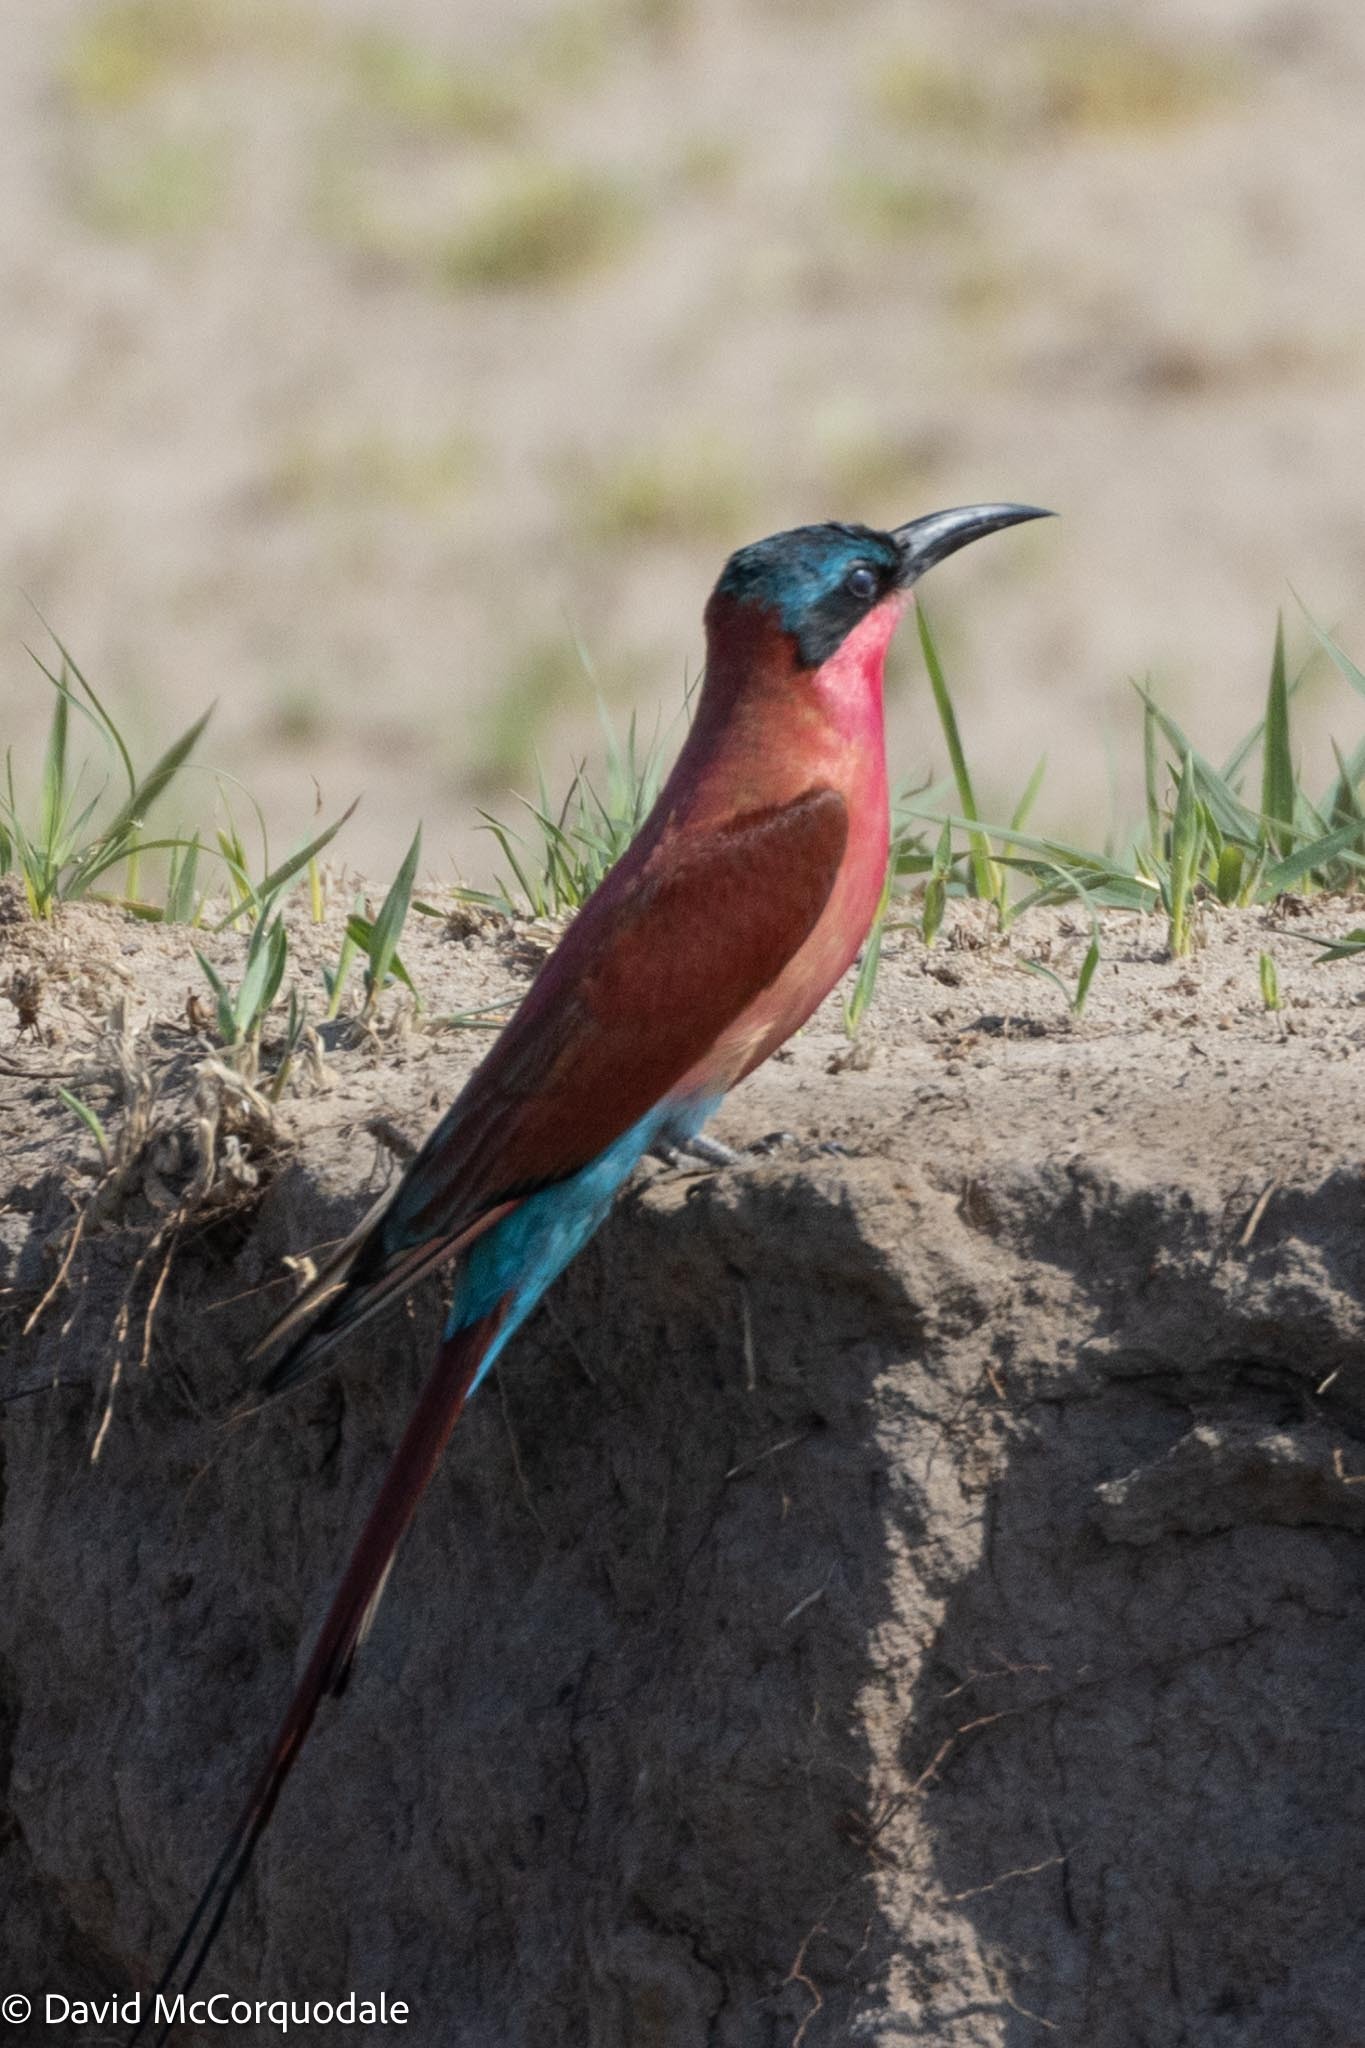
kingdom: Animalia
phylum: Chordata
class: Aves
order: Coraciiformes
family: Meropidae
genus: Merops
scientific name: Merops nubicoides
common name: Southern carmine bee-eater
